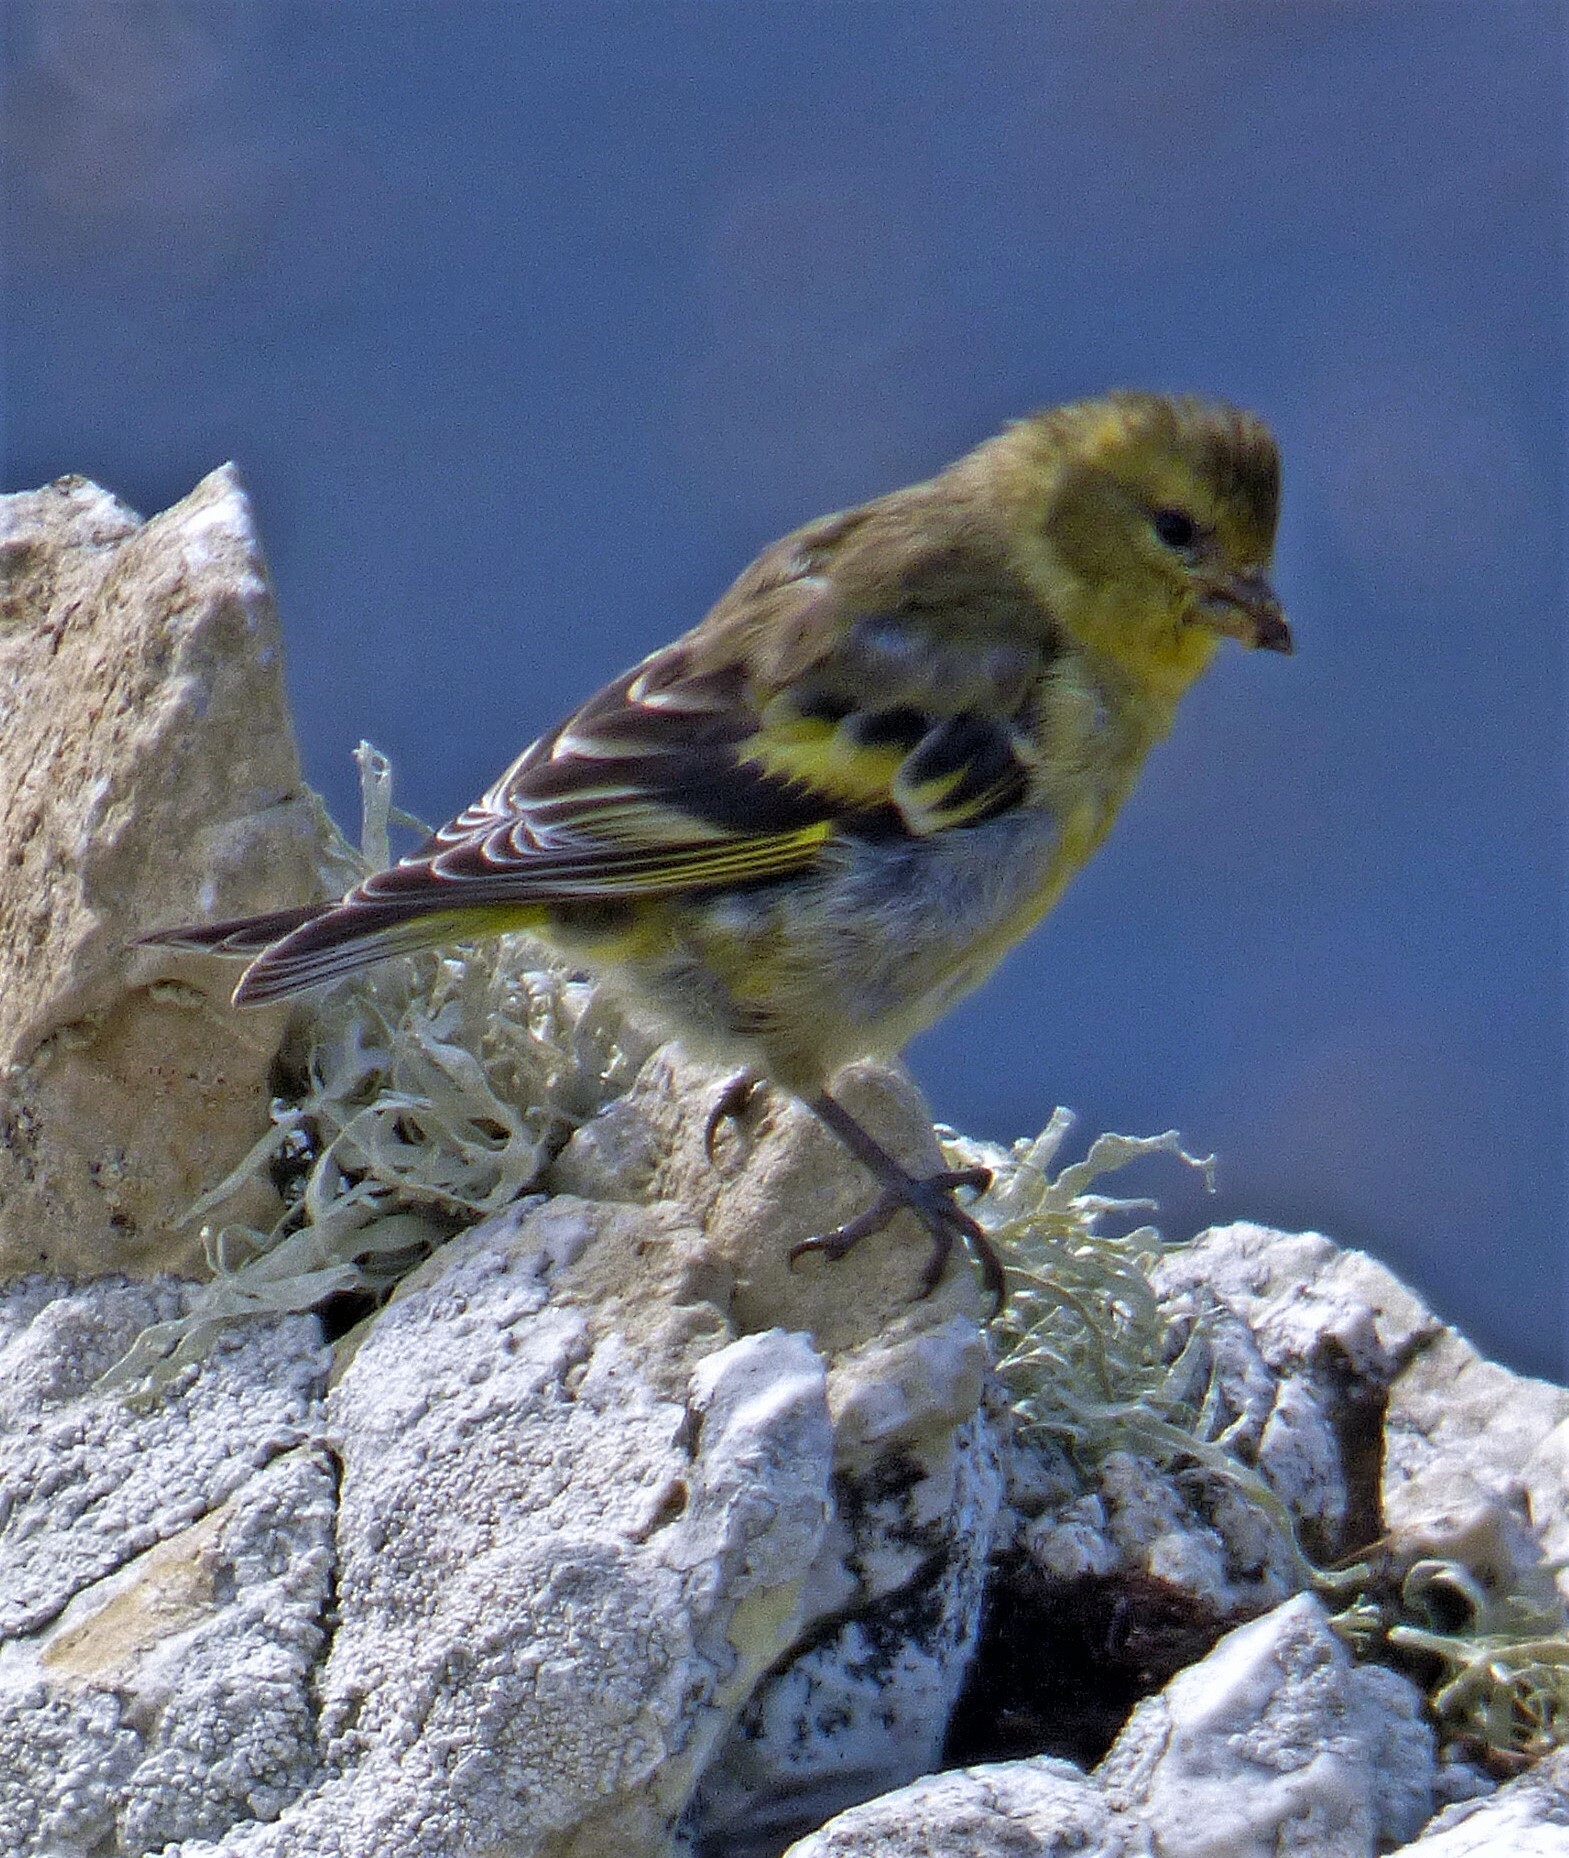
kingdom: Animalia
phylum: Chordata
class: Aves
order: Passeriformes
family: Fringillidae
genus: Spinus
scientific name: Spinus barbatus
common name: Black-chinned siskin
